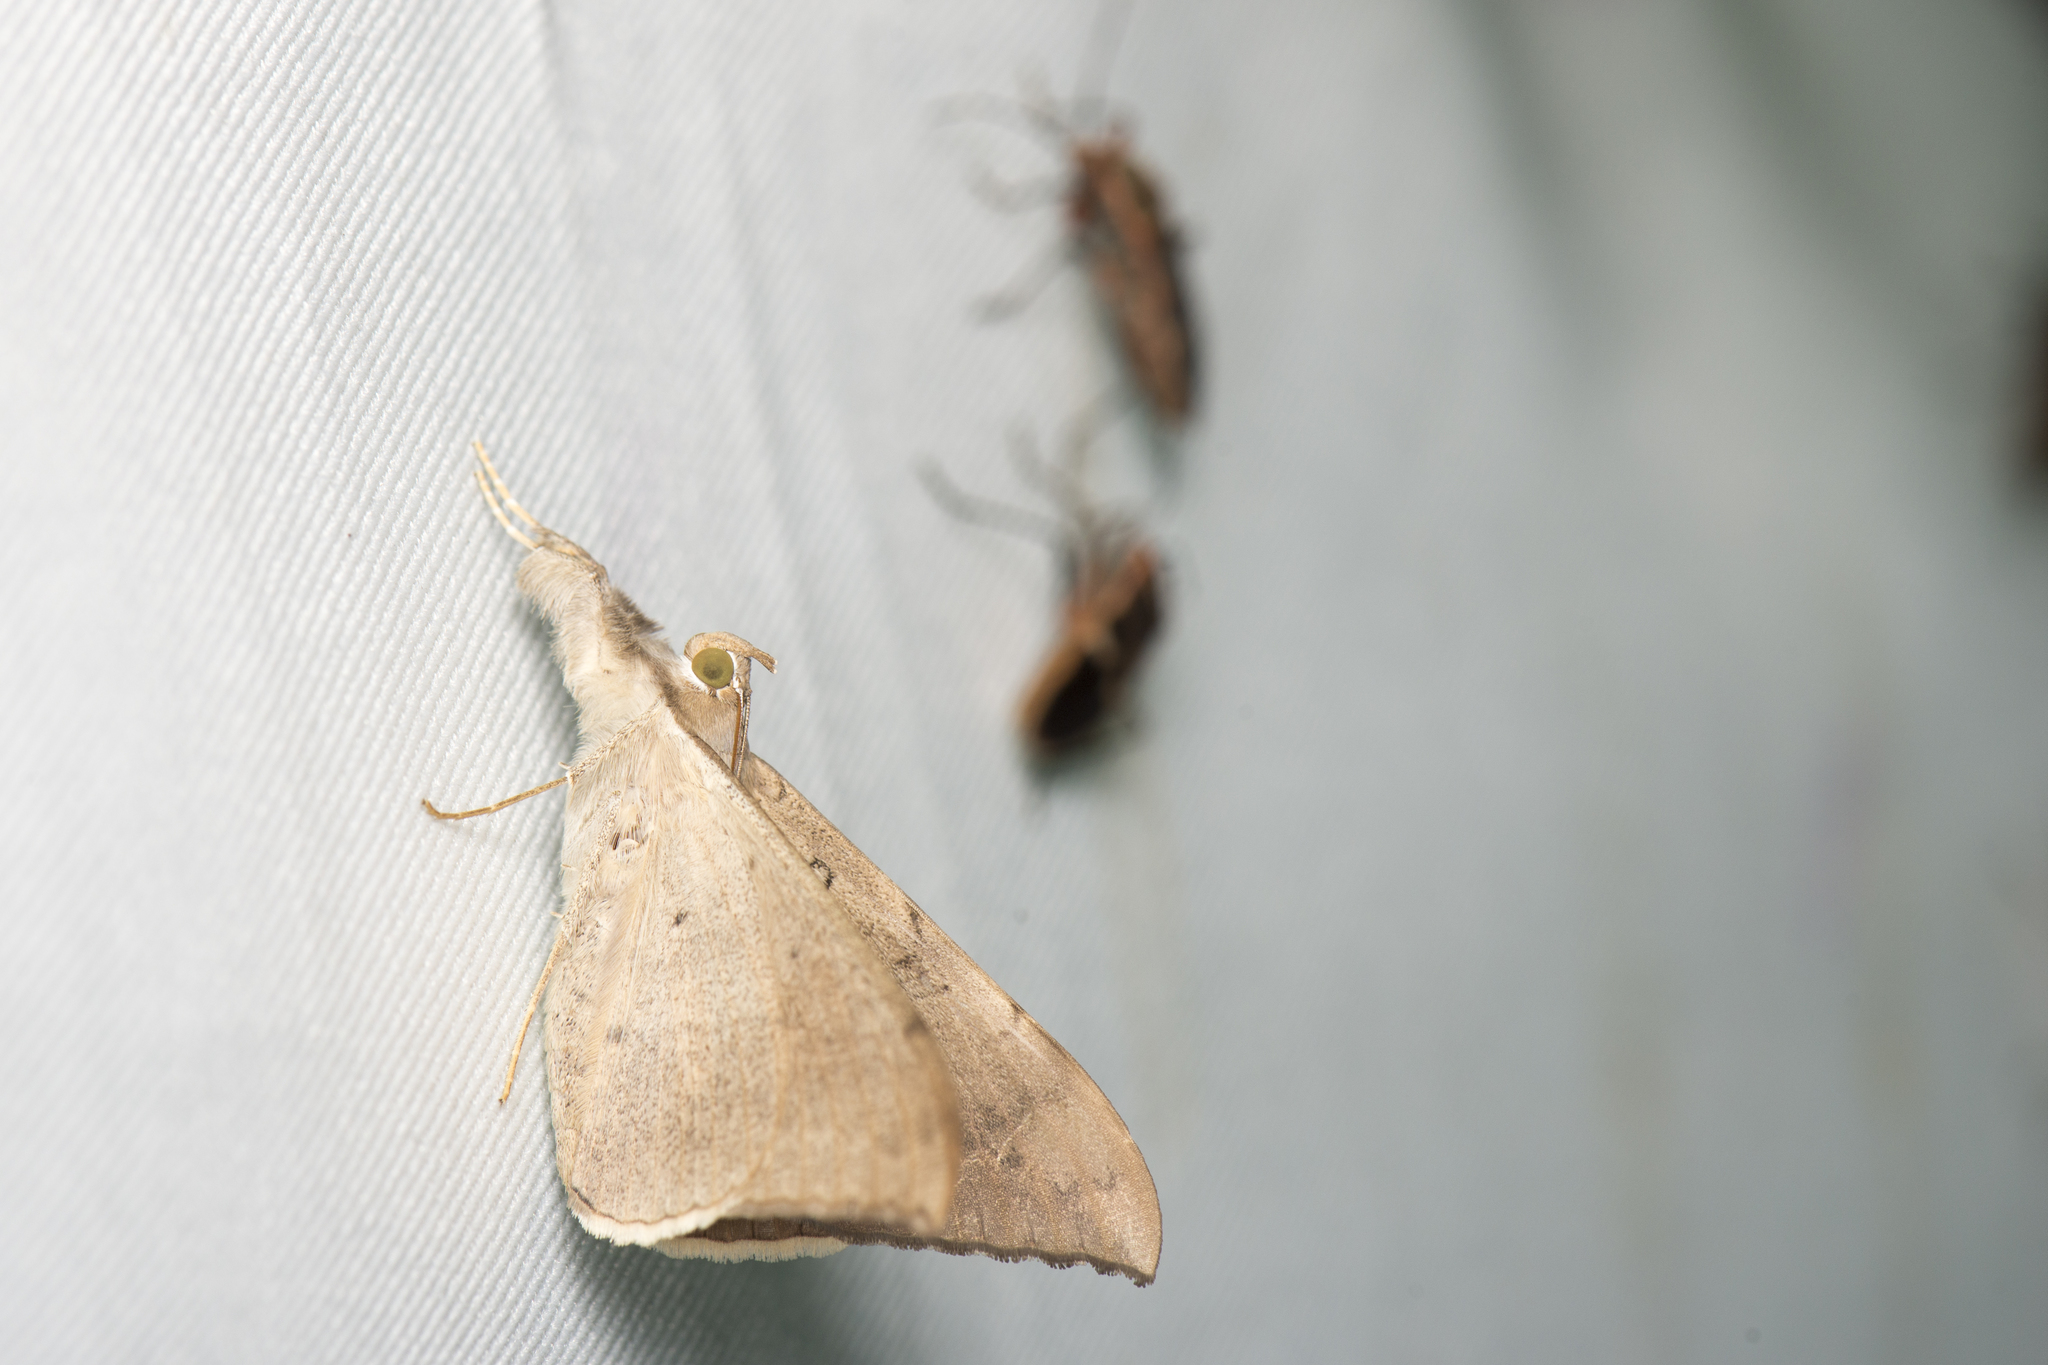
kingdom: Animalia
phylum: Arthropoda
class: Insecta
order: Lepidoptera
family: Erebidae
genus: Oxyodes
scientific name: Oxyodes scrobiculata
